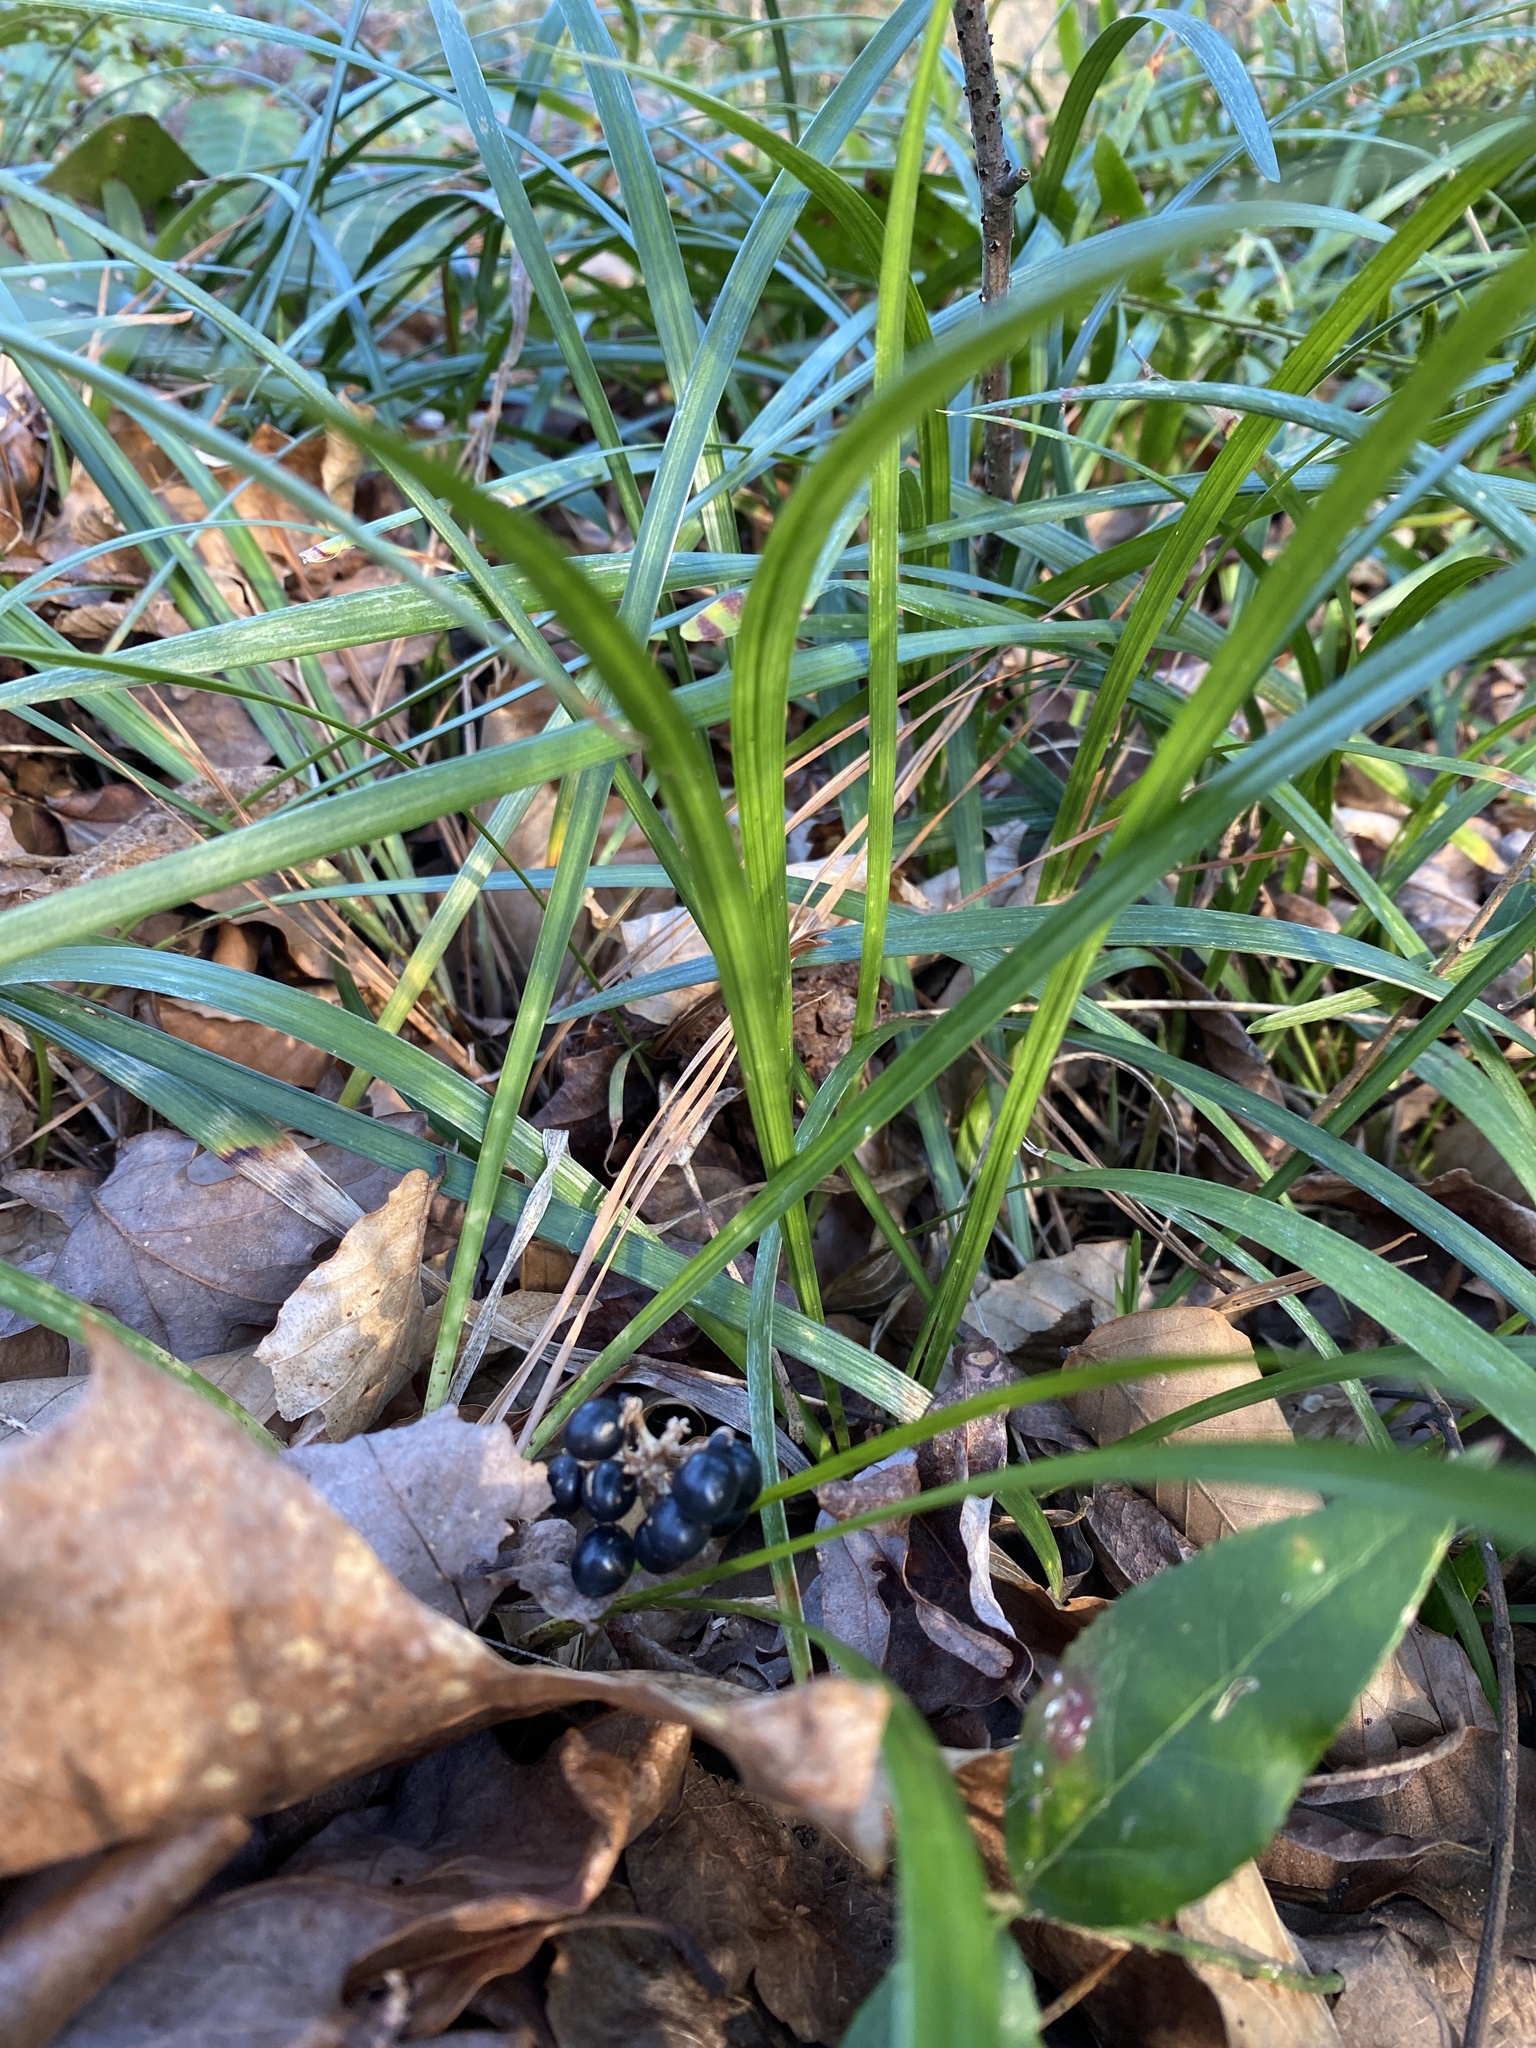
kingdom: Plantae
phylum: Tracheophyta
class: Liliopsida
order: Asparagales
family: Asparagaceae
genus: Liriope
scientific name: Liriope muscari
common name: Big blue lilyturf
